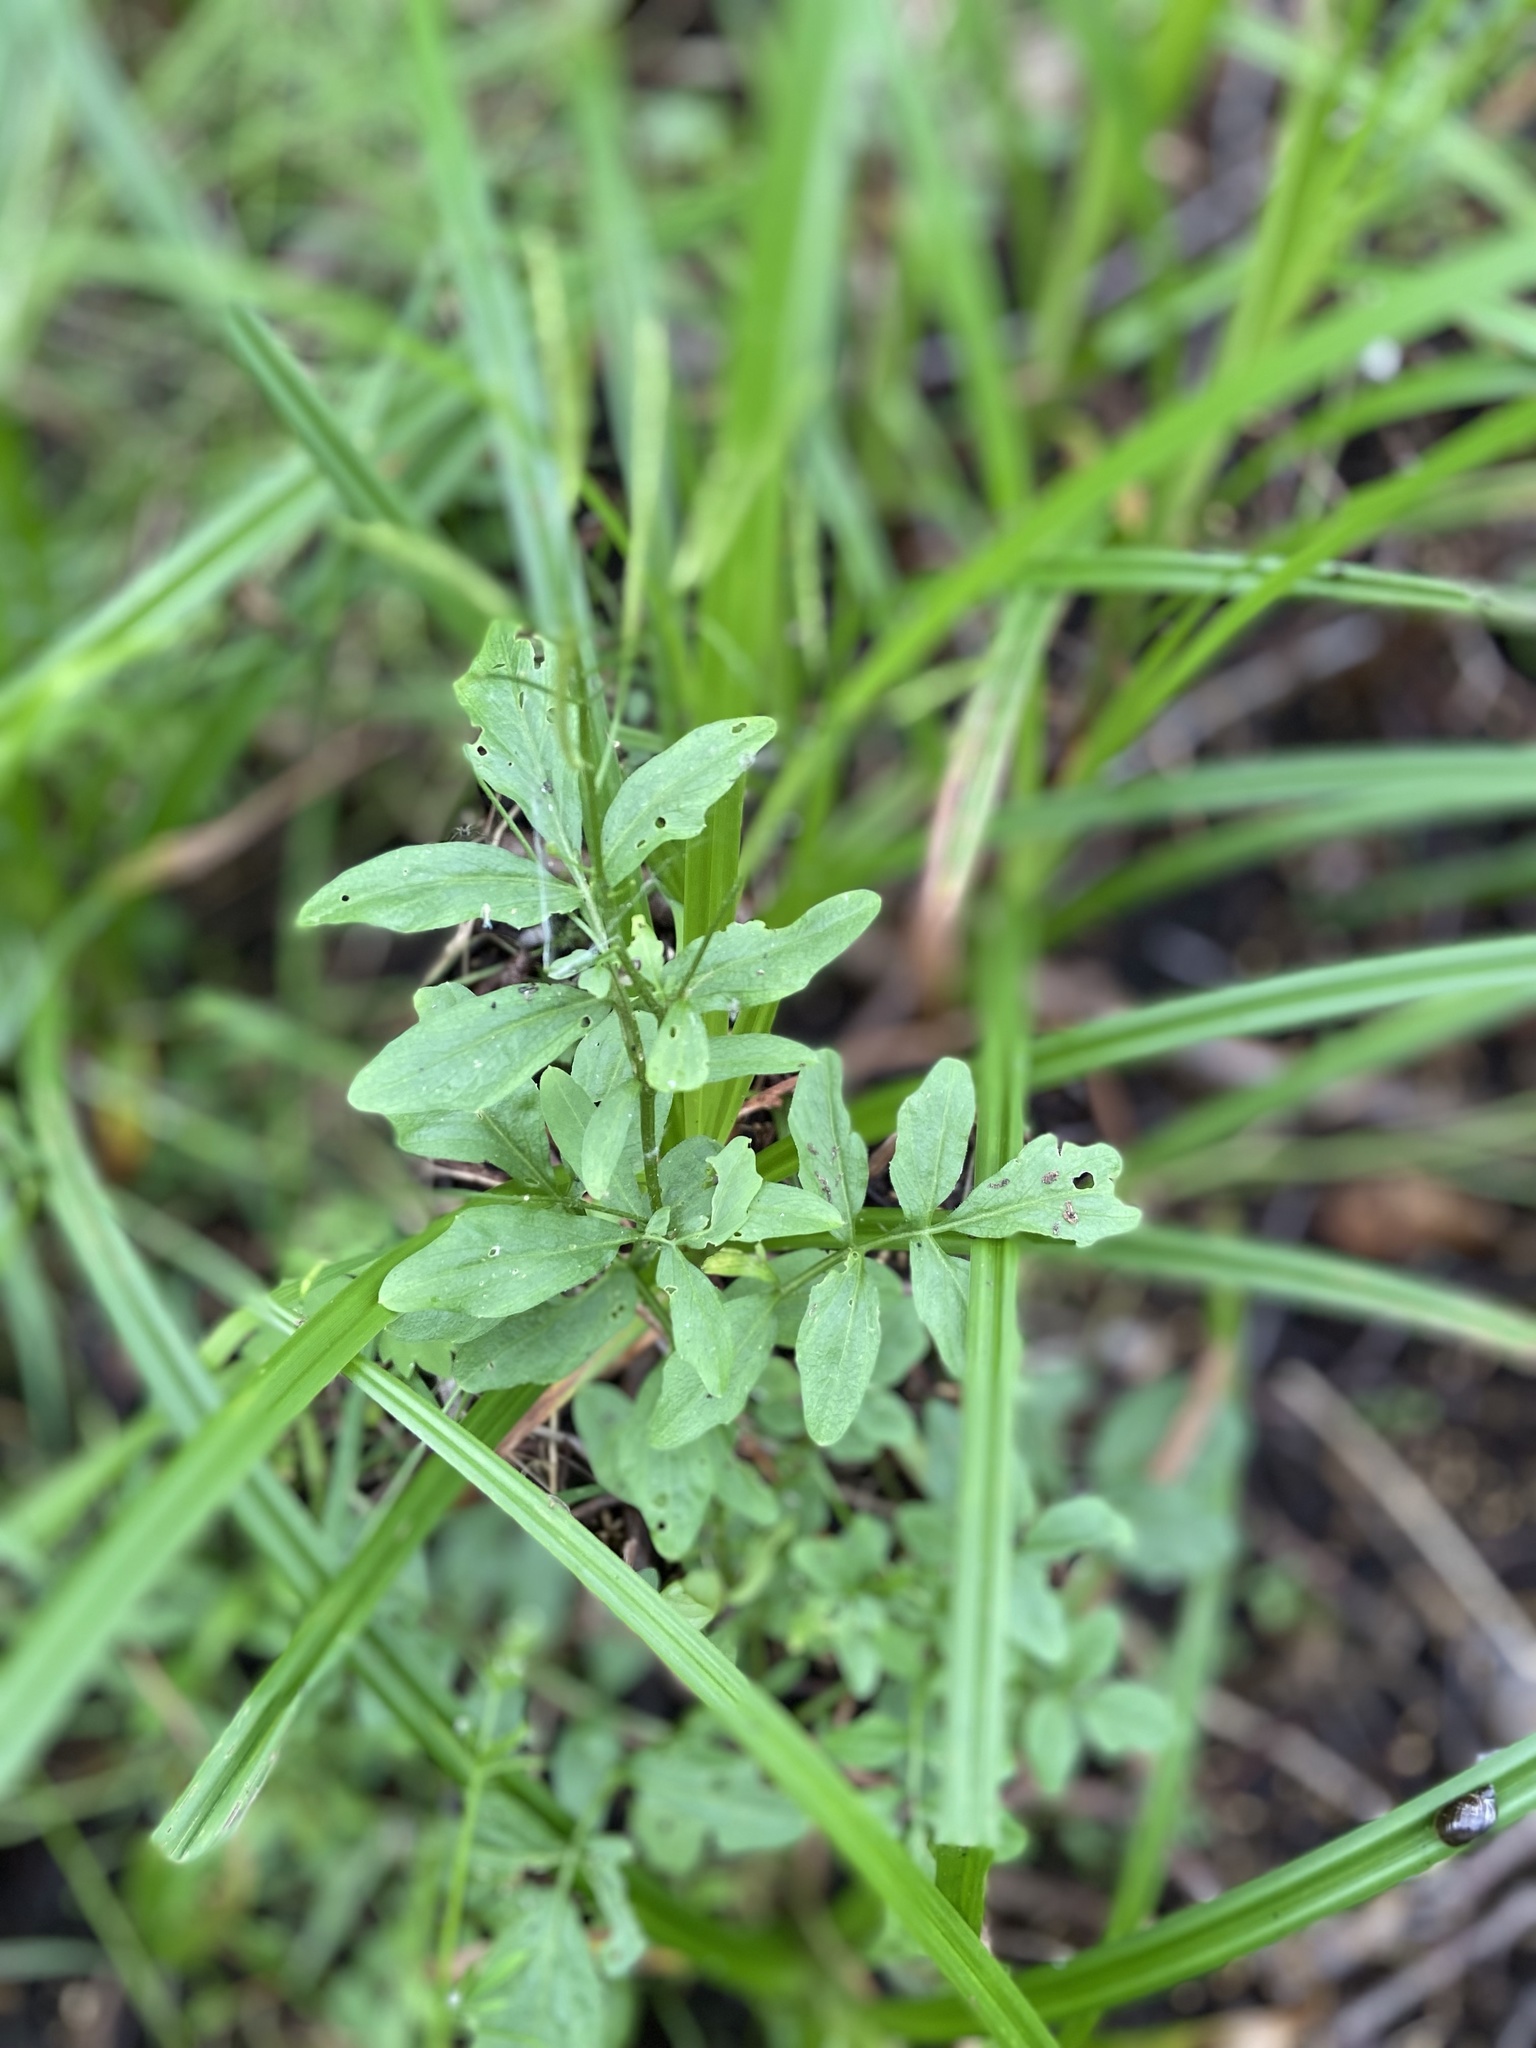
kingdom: Plantae
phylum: Tracheophyta
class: Magnoliopsida
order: Brassicales
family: Brassicaceae
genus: Cardamine
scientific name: Cardamine flexuosa
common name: Woodland bittercress
